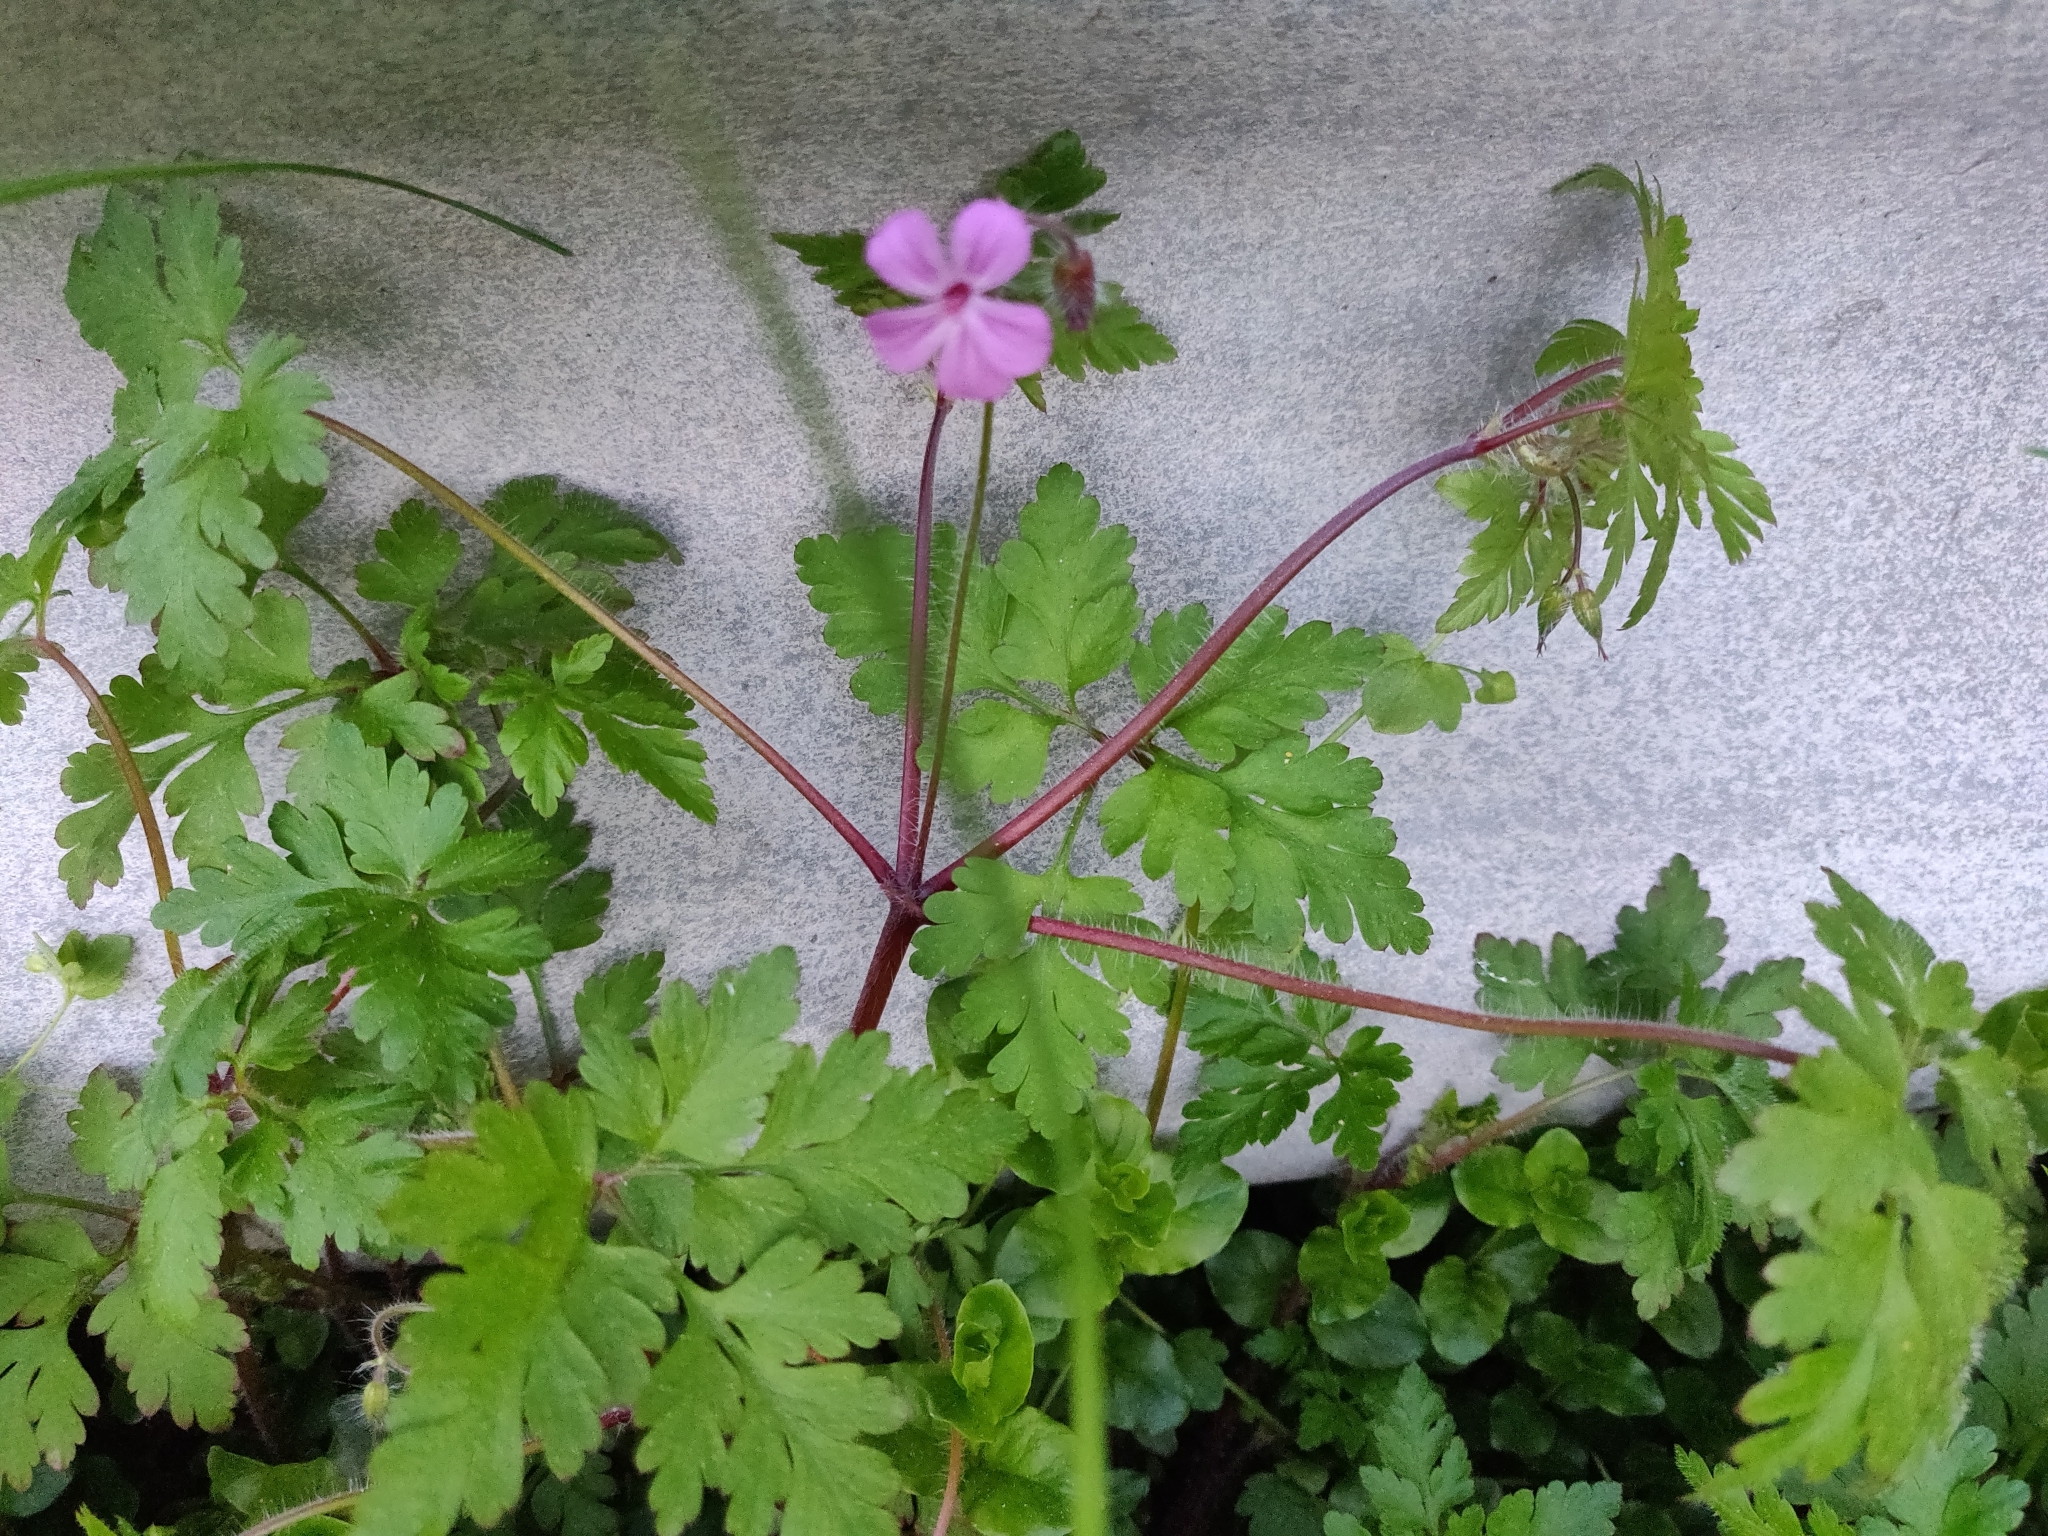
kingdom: Plantae
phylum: Tracheophyta
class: Magnoliopsida
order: Geraniales
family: Geraniaceae
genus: Geranium
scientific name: Geranium robertianum
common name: Herb-robert
